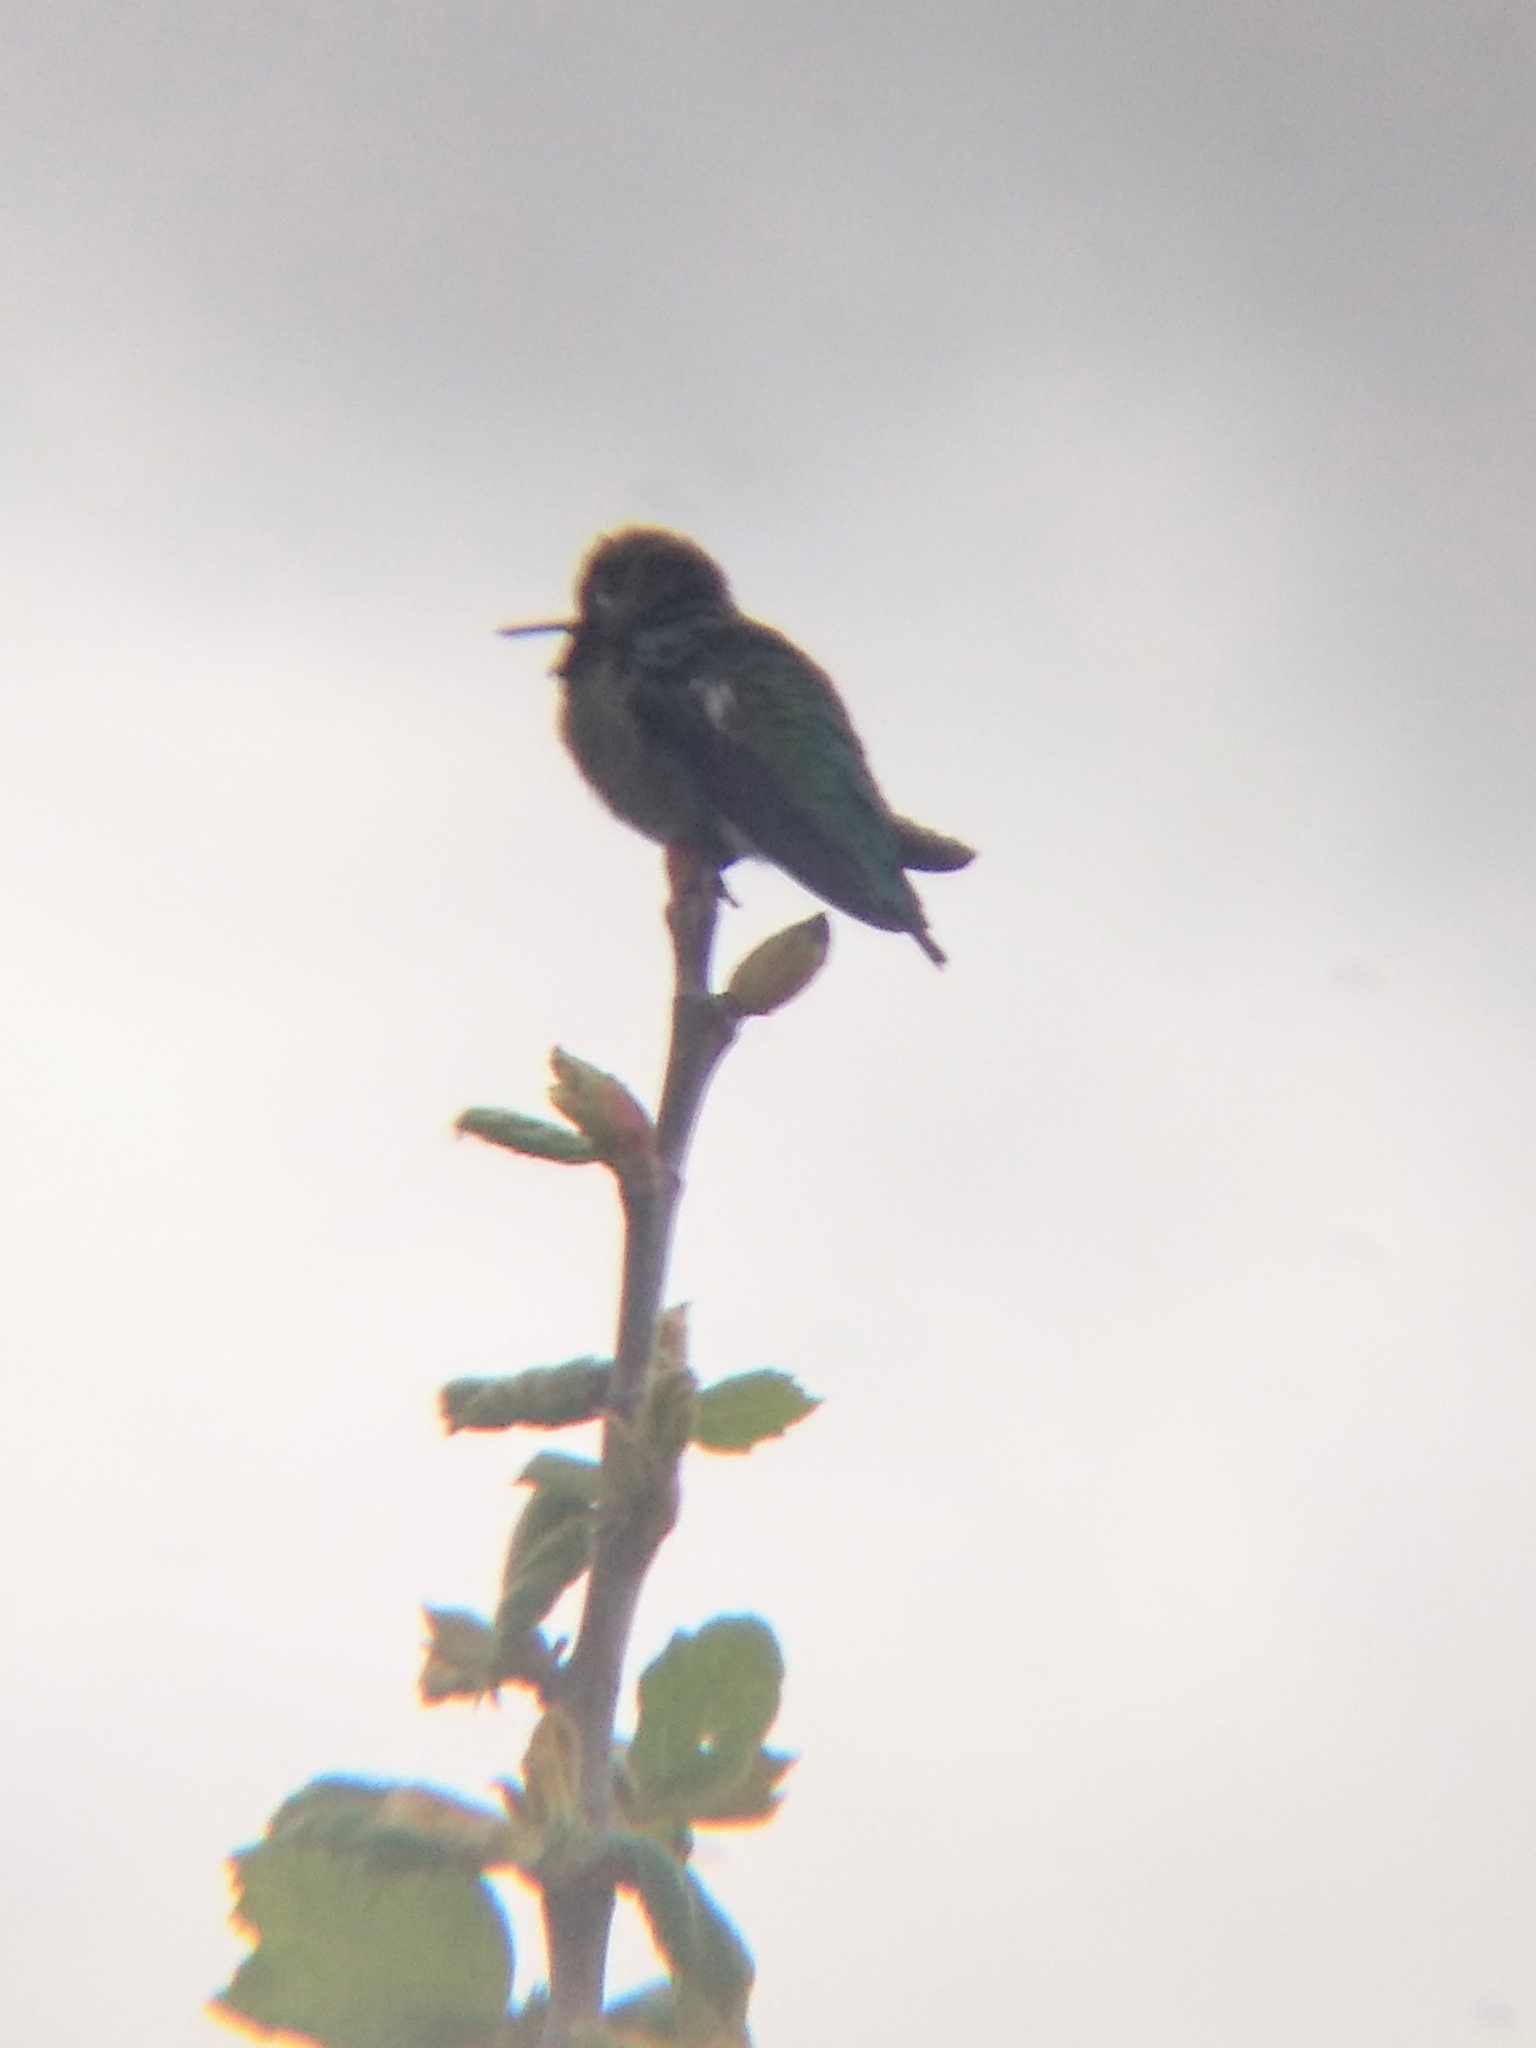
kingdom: Animalia
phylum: Chordata
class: Aves
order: Apodiformes
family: Trochilidae
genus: Calypte
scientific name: Calypte anna
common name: Anna's hummingbird
